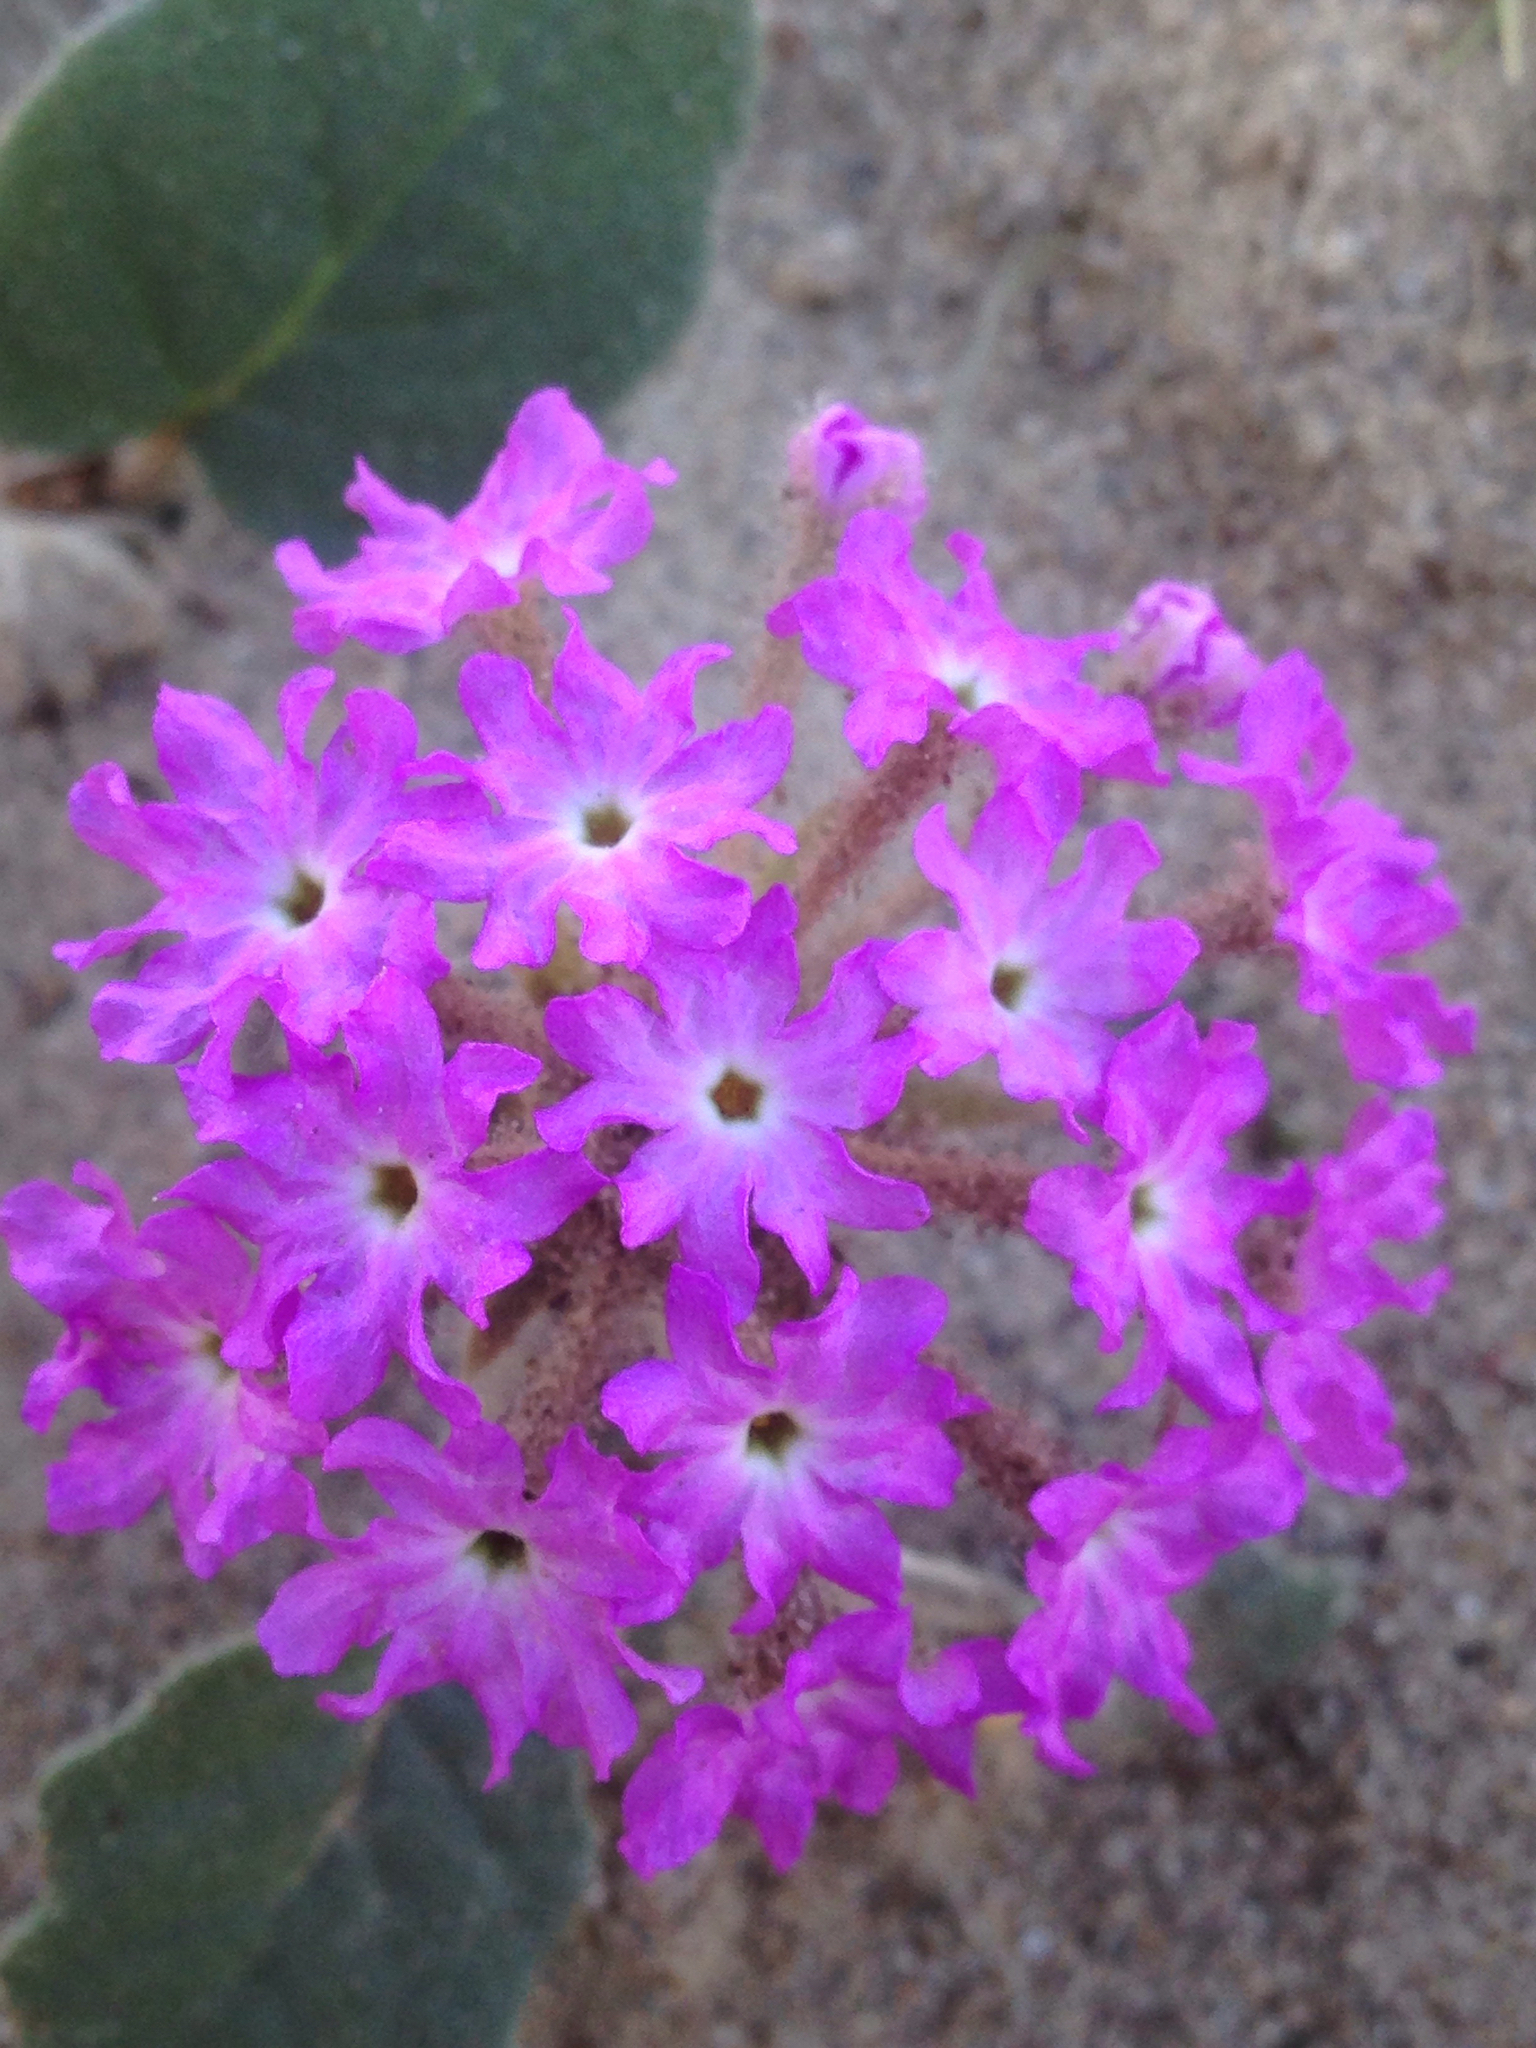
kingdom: Plantae
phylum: Tracheophyta
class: Magnoliopsida
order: Caryophyllales
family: Nyctaginaceae
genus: Abronia
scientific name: Abronia villosa
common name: Desert sand-verbena
